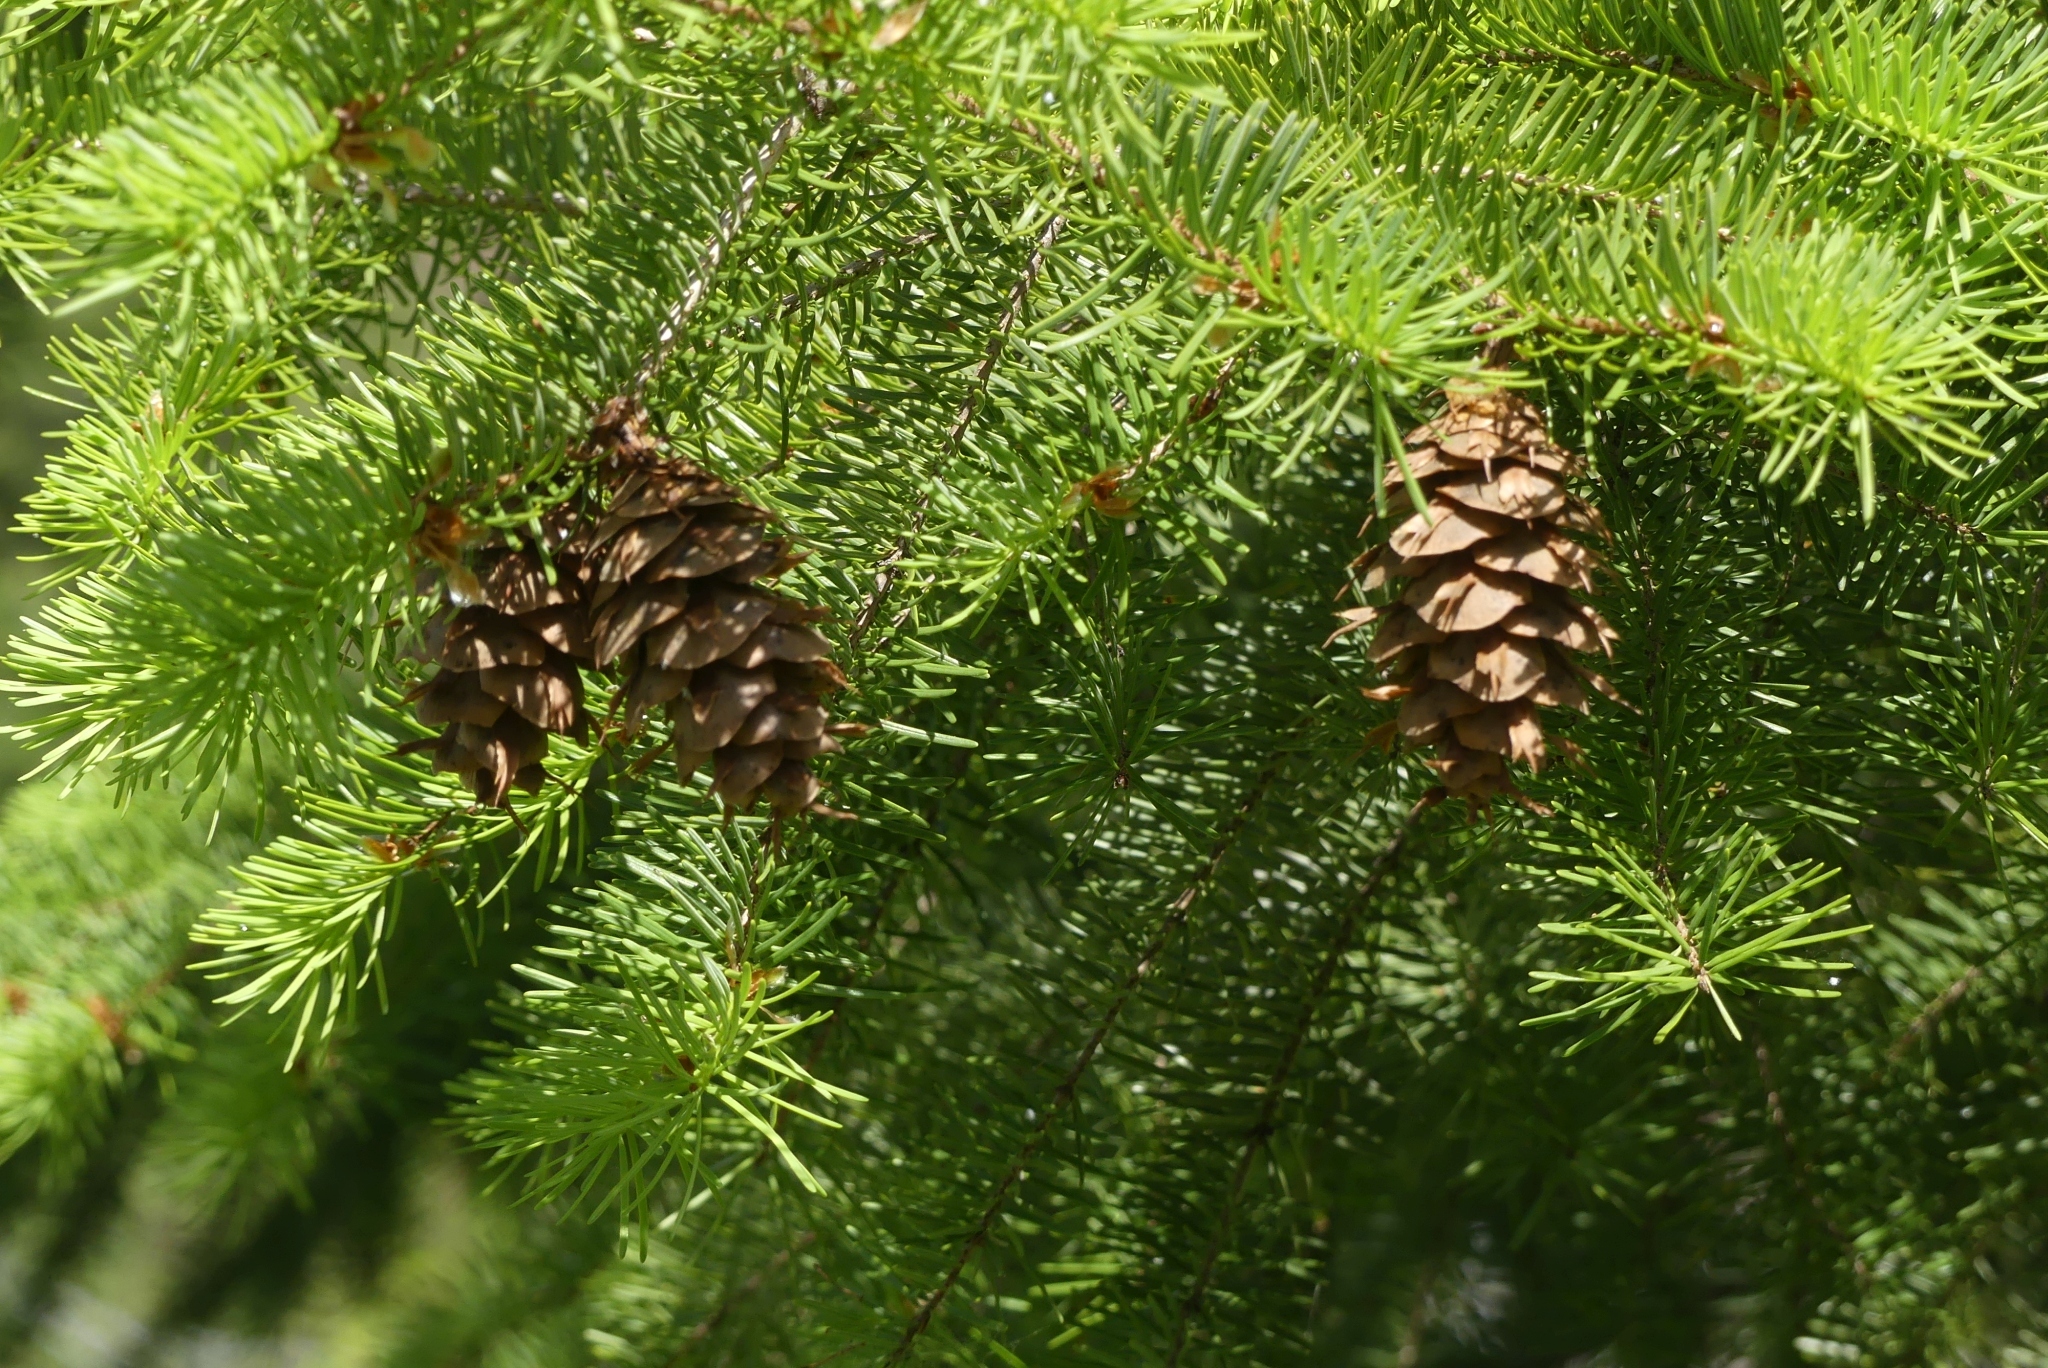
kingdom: Plantae
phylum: Tracheophyta
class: Pinopsida
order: Pinales
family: Pinaceae
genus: Pseudotsuga
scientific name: Pseudotsuga menziesii
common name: Douglas fir
